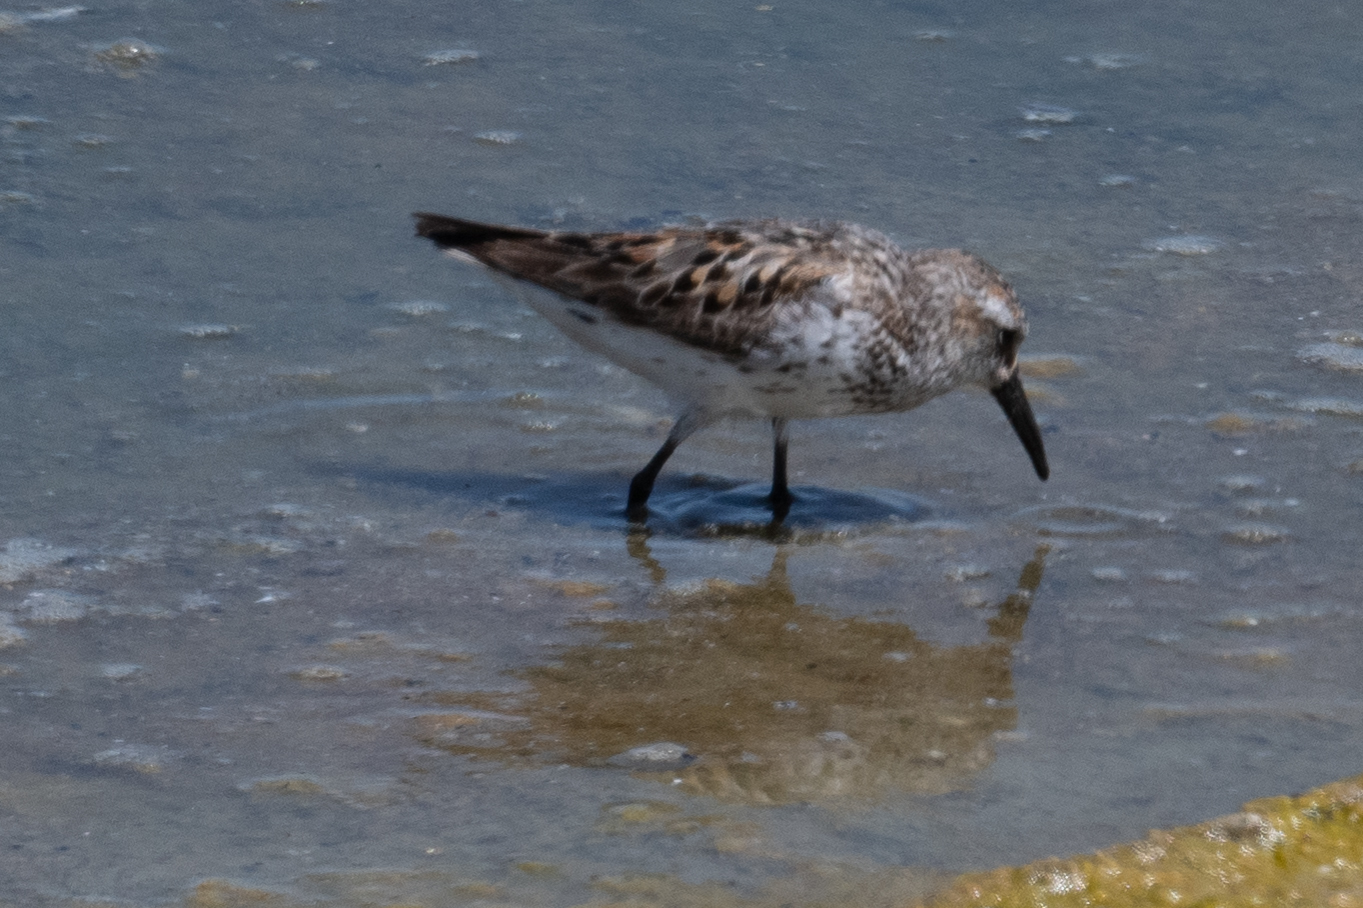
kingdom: Animalia
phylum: Chordata
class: Aves
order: Charadriiformes
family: Scolopacidae
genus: Calidris
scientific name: Calidris mauri
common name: Western sandpiper
